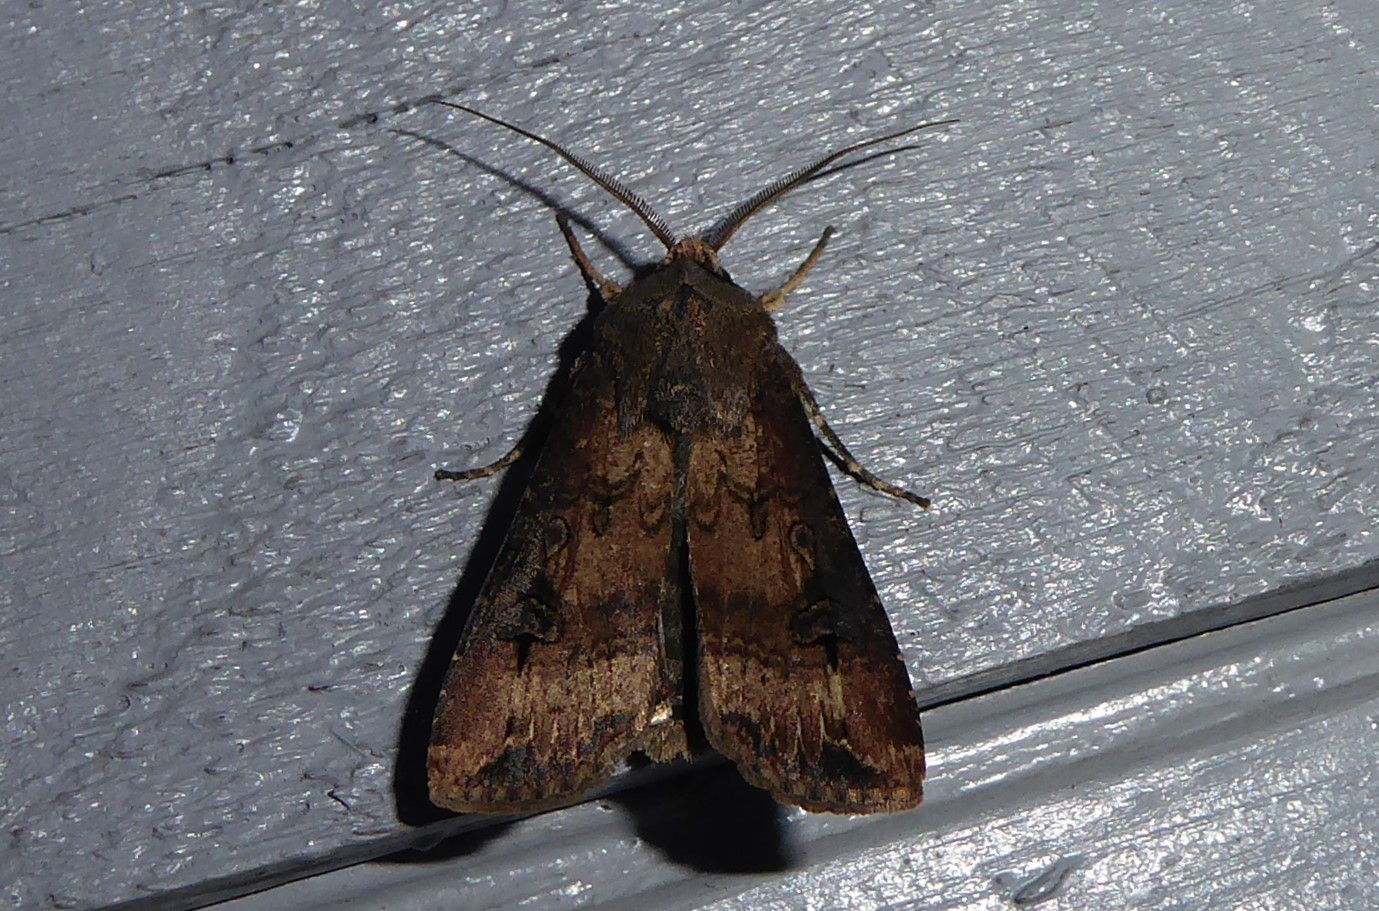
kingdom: Animalia
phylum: Arthropoda
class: Insecta
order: Lepidoptera
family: Noctuidae
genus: Agrotis
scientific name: Agrotis ipsilon
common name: Dark sword-grass
